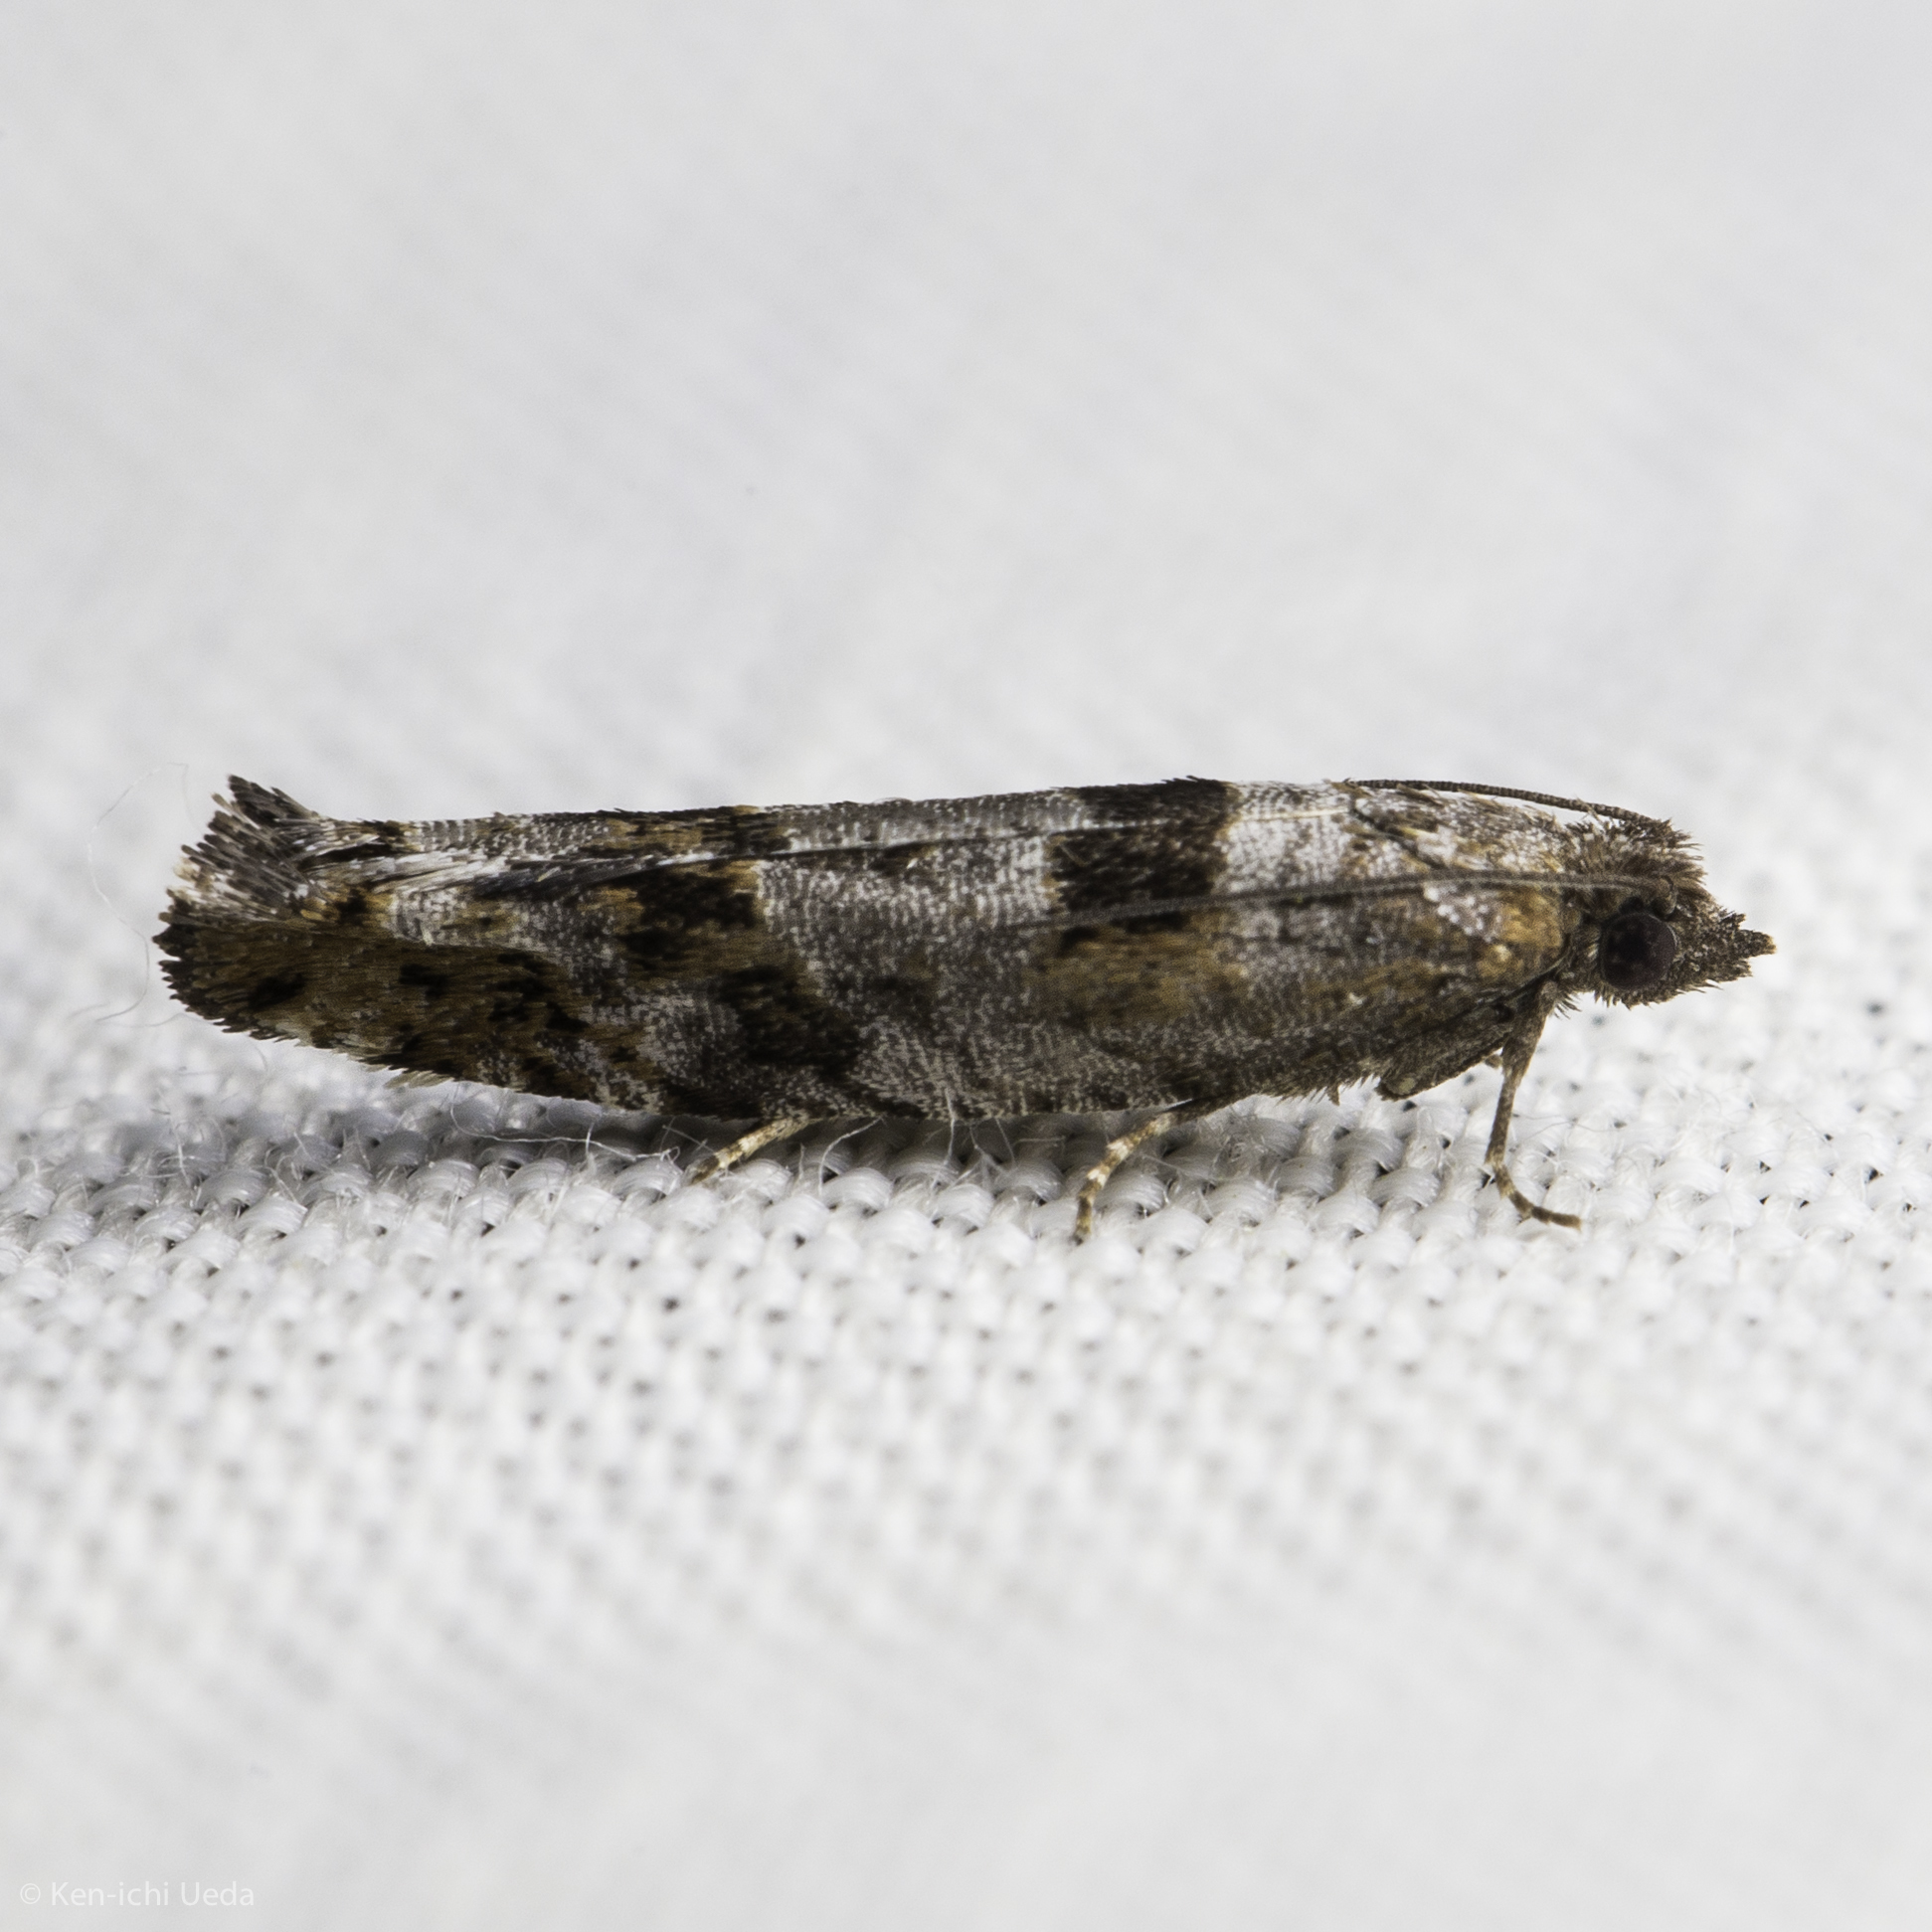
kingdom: Animalia
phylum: Arthropoda
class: Insecta
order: Lepidoptera
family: Tortricidae
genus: Pseudexentera
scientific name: Pseudexentera habrosana
